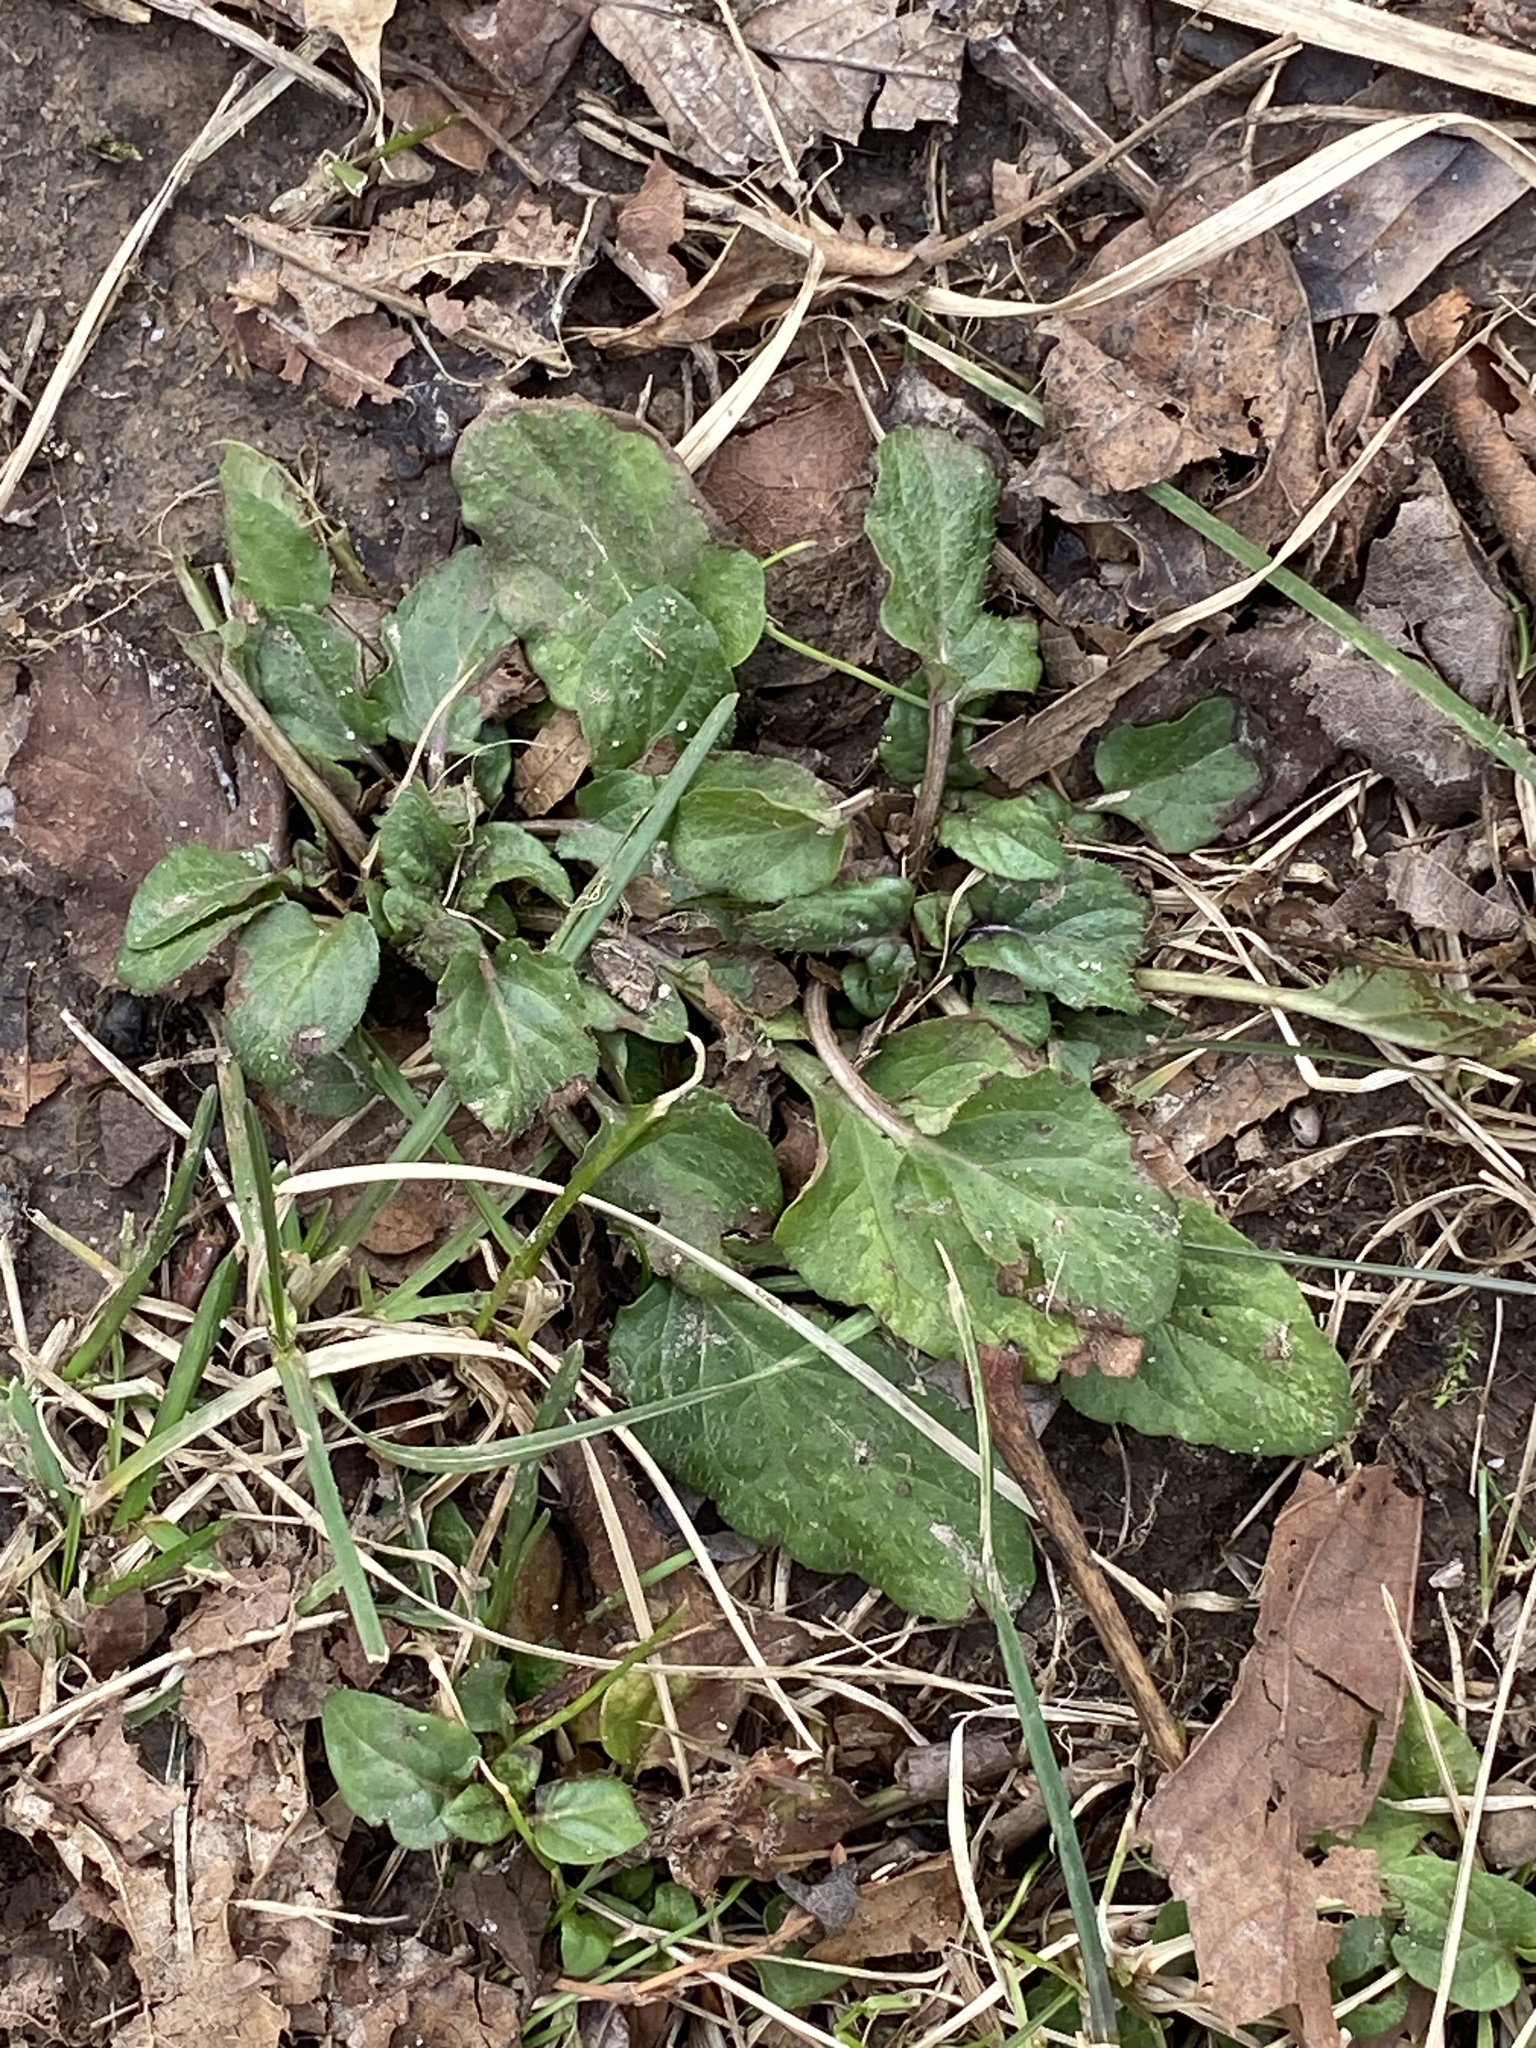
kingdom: Plantae
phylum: Tracheophyta
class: Magnoliopsida
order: Lamiales
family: Lamiaceae
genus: Prunella
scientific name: Prunella vulgaris
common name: Heal-all
